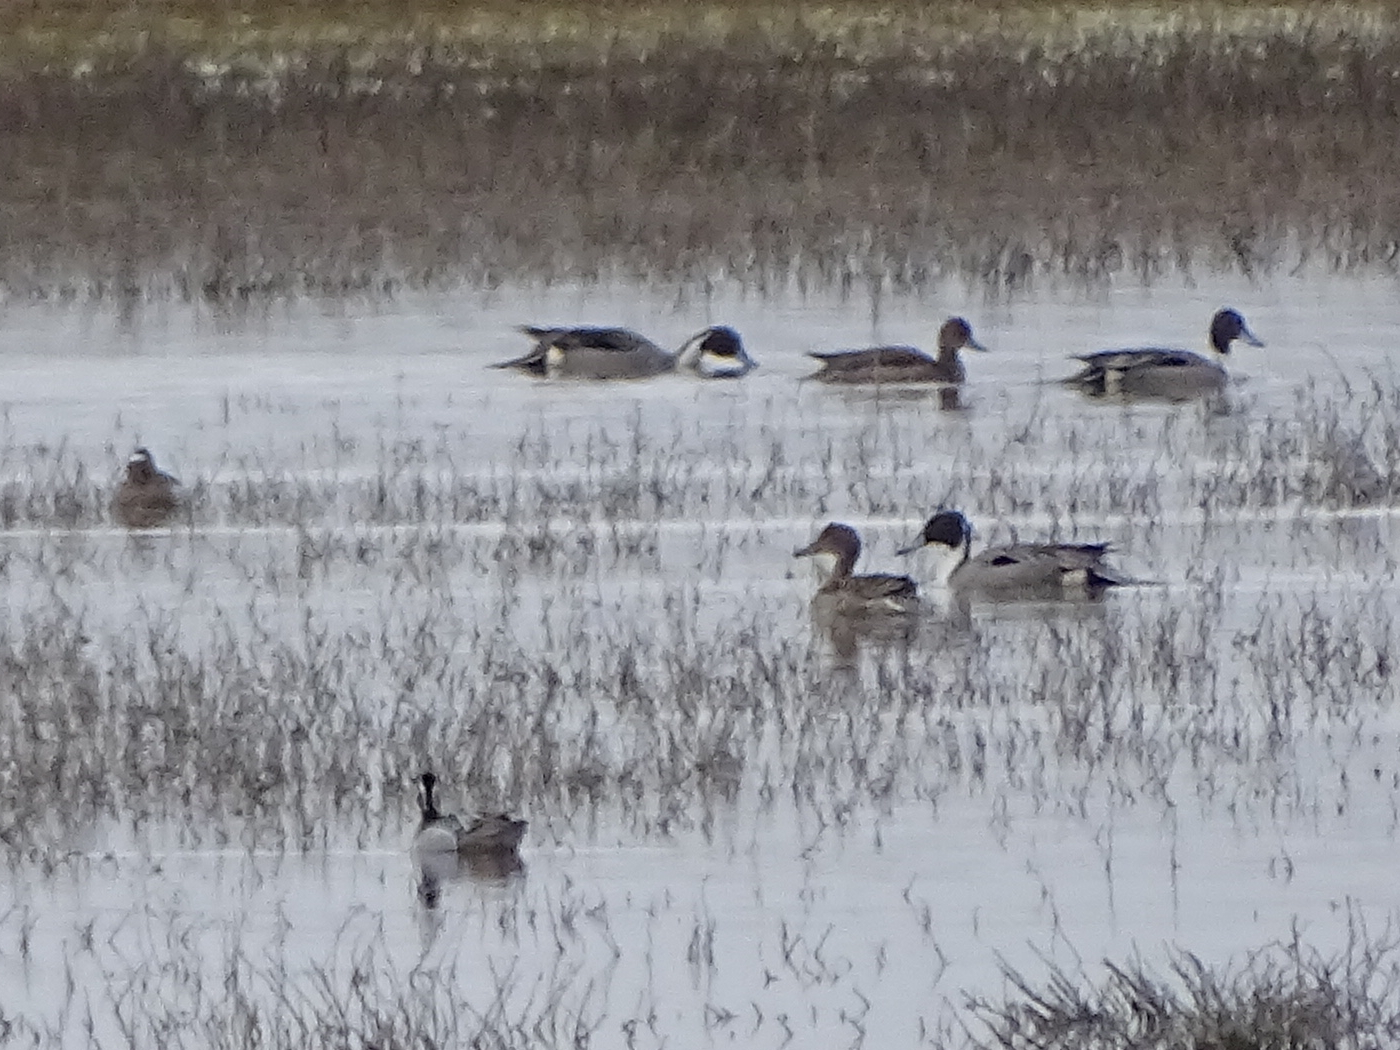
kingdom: Animalia
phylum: Chordata
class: Aves
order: Anseriformes
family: Anatidae
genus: Anas
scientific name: Anas acuta
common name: Northern pintail
